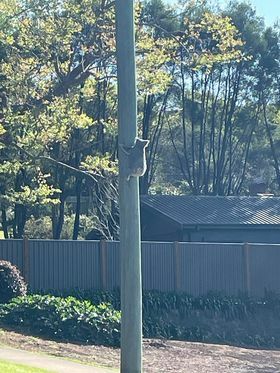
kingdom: Animalia
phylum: Chordata
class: Mammalia
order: Diprotodontia
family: Phascolarctidae
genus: Phascolarctos
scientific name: Phascolarctos cinereus
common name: Koala
